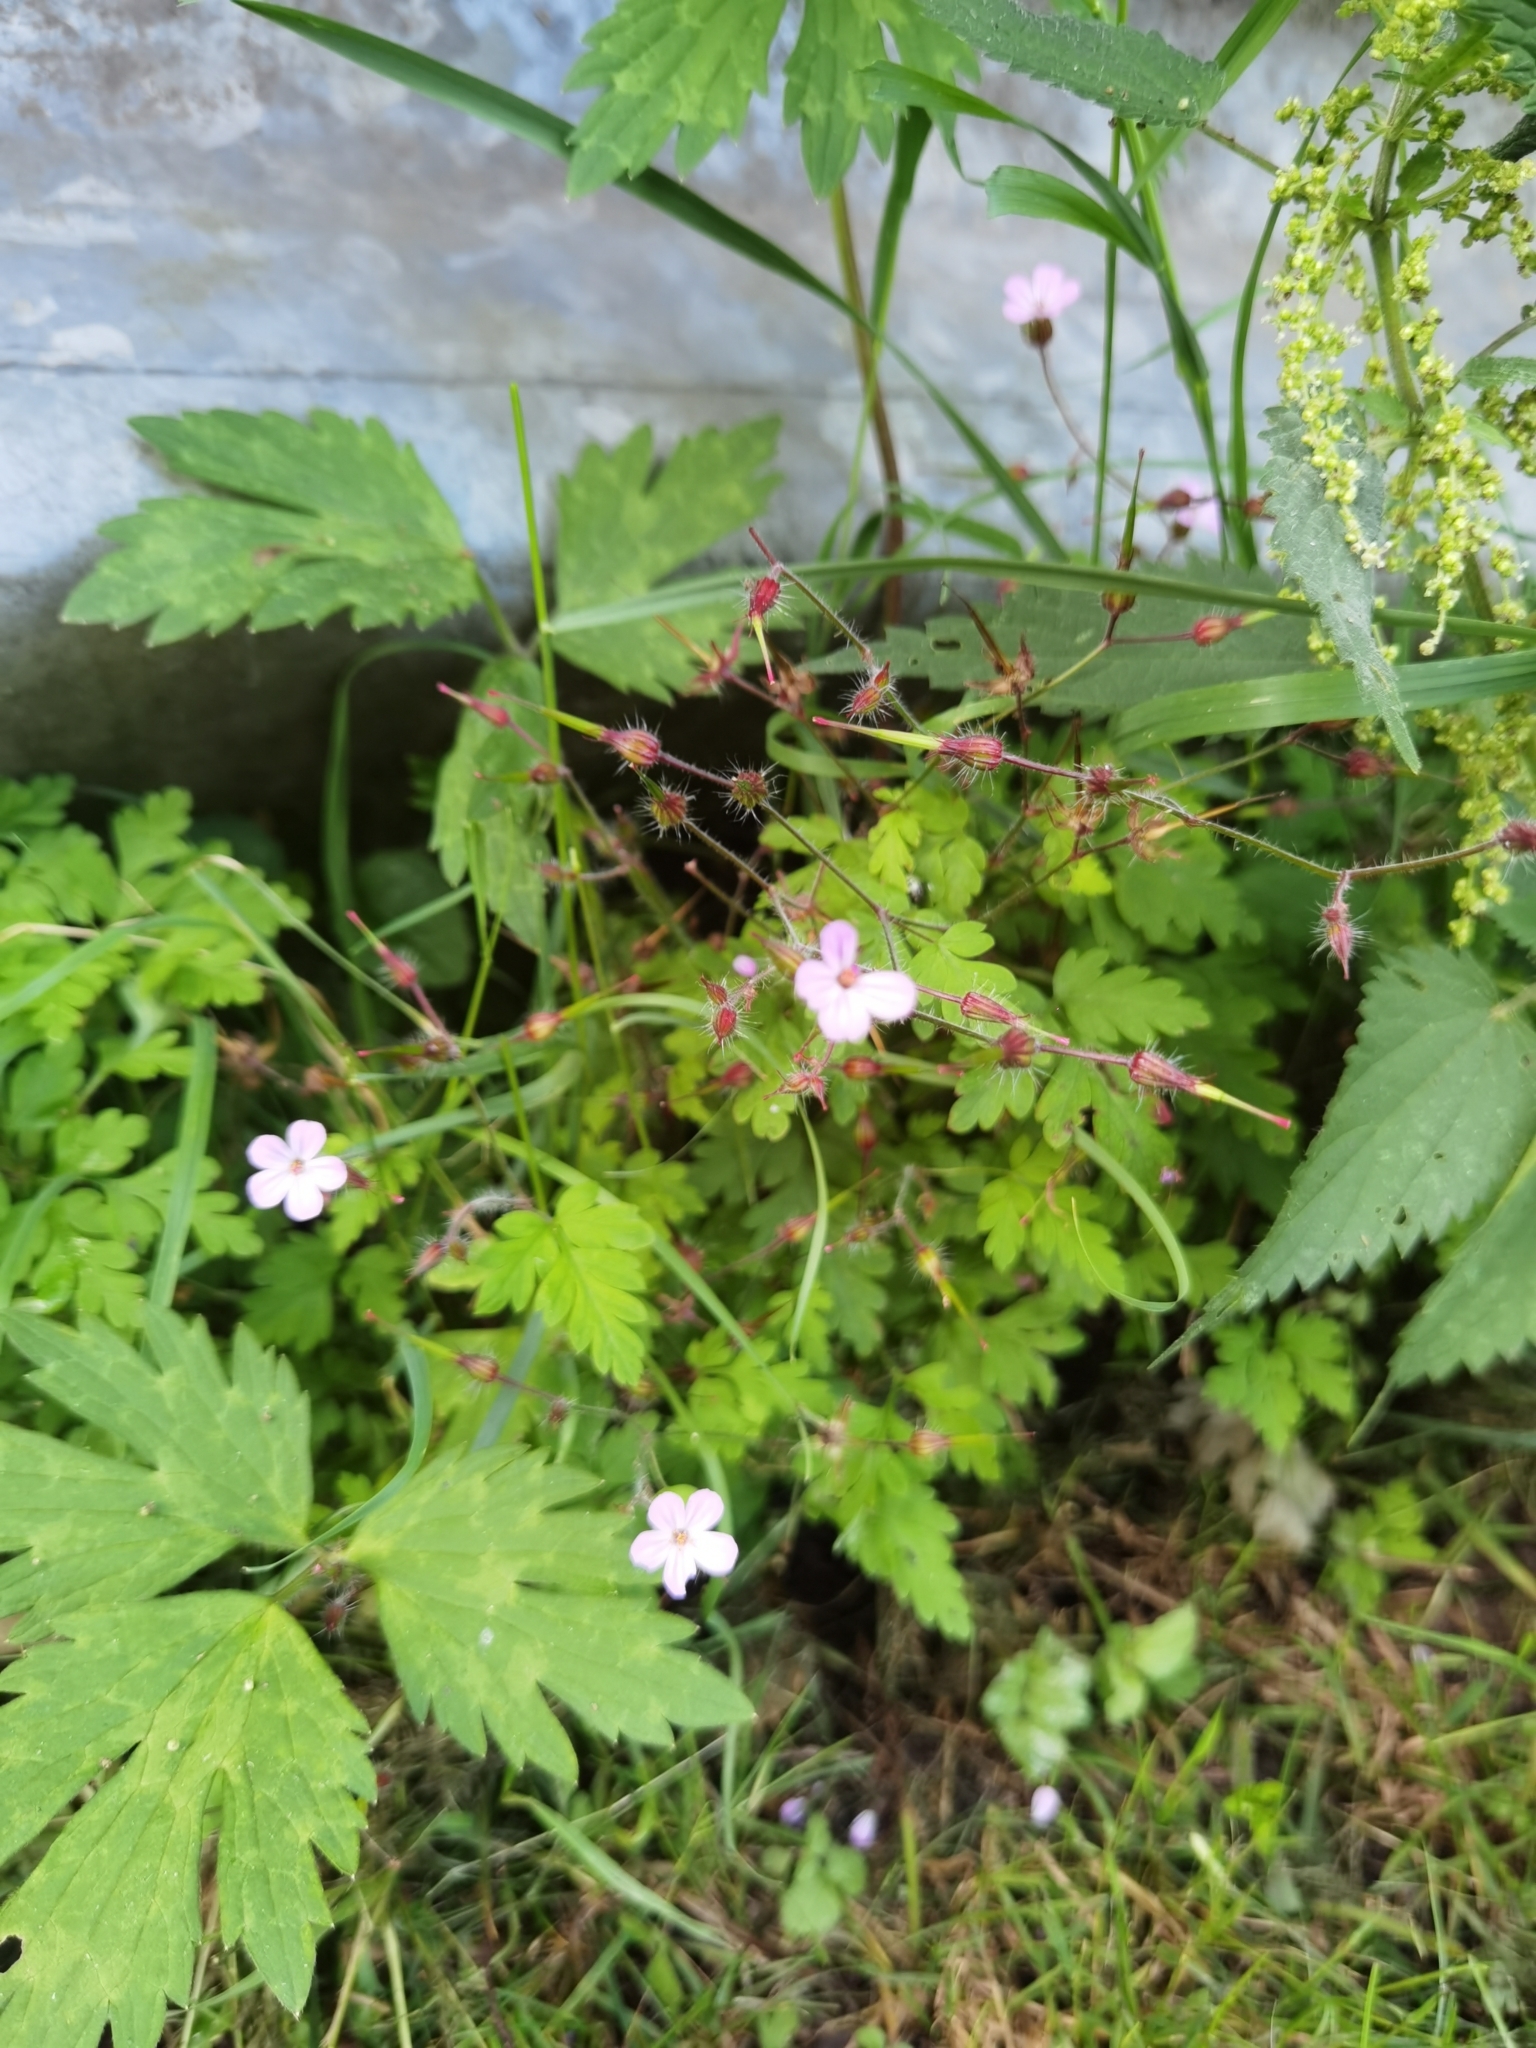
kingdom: Plantae
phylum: Tracheophyta
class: Magnoliopsida
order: Geraniales
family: Geraniaceae
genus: Geranium
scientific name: Geranium robertianum
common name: Herb-robert
